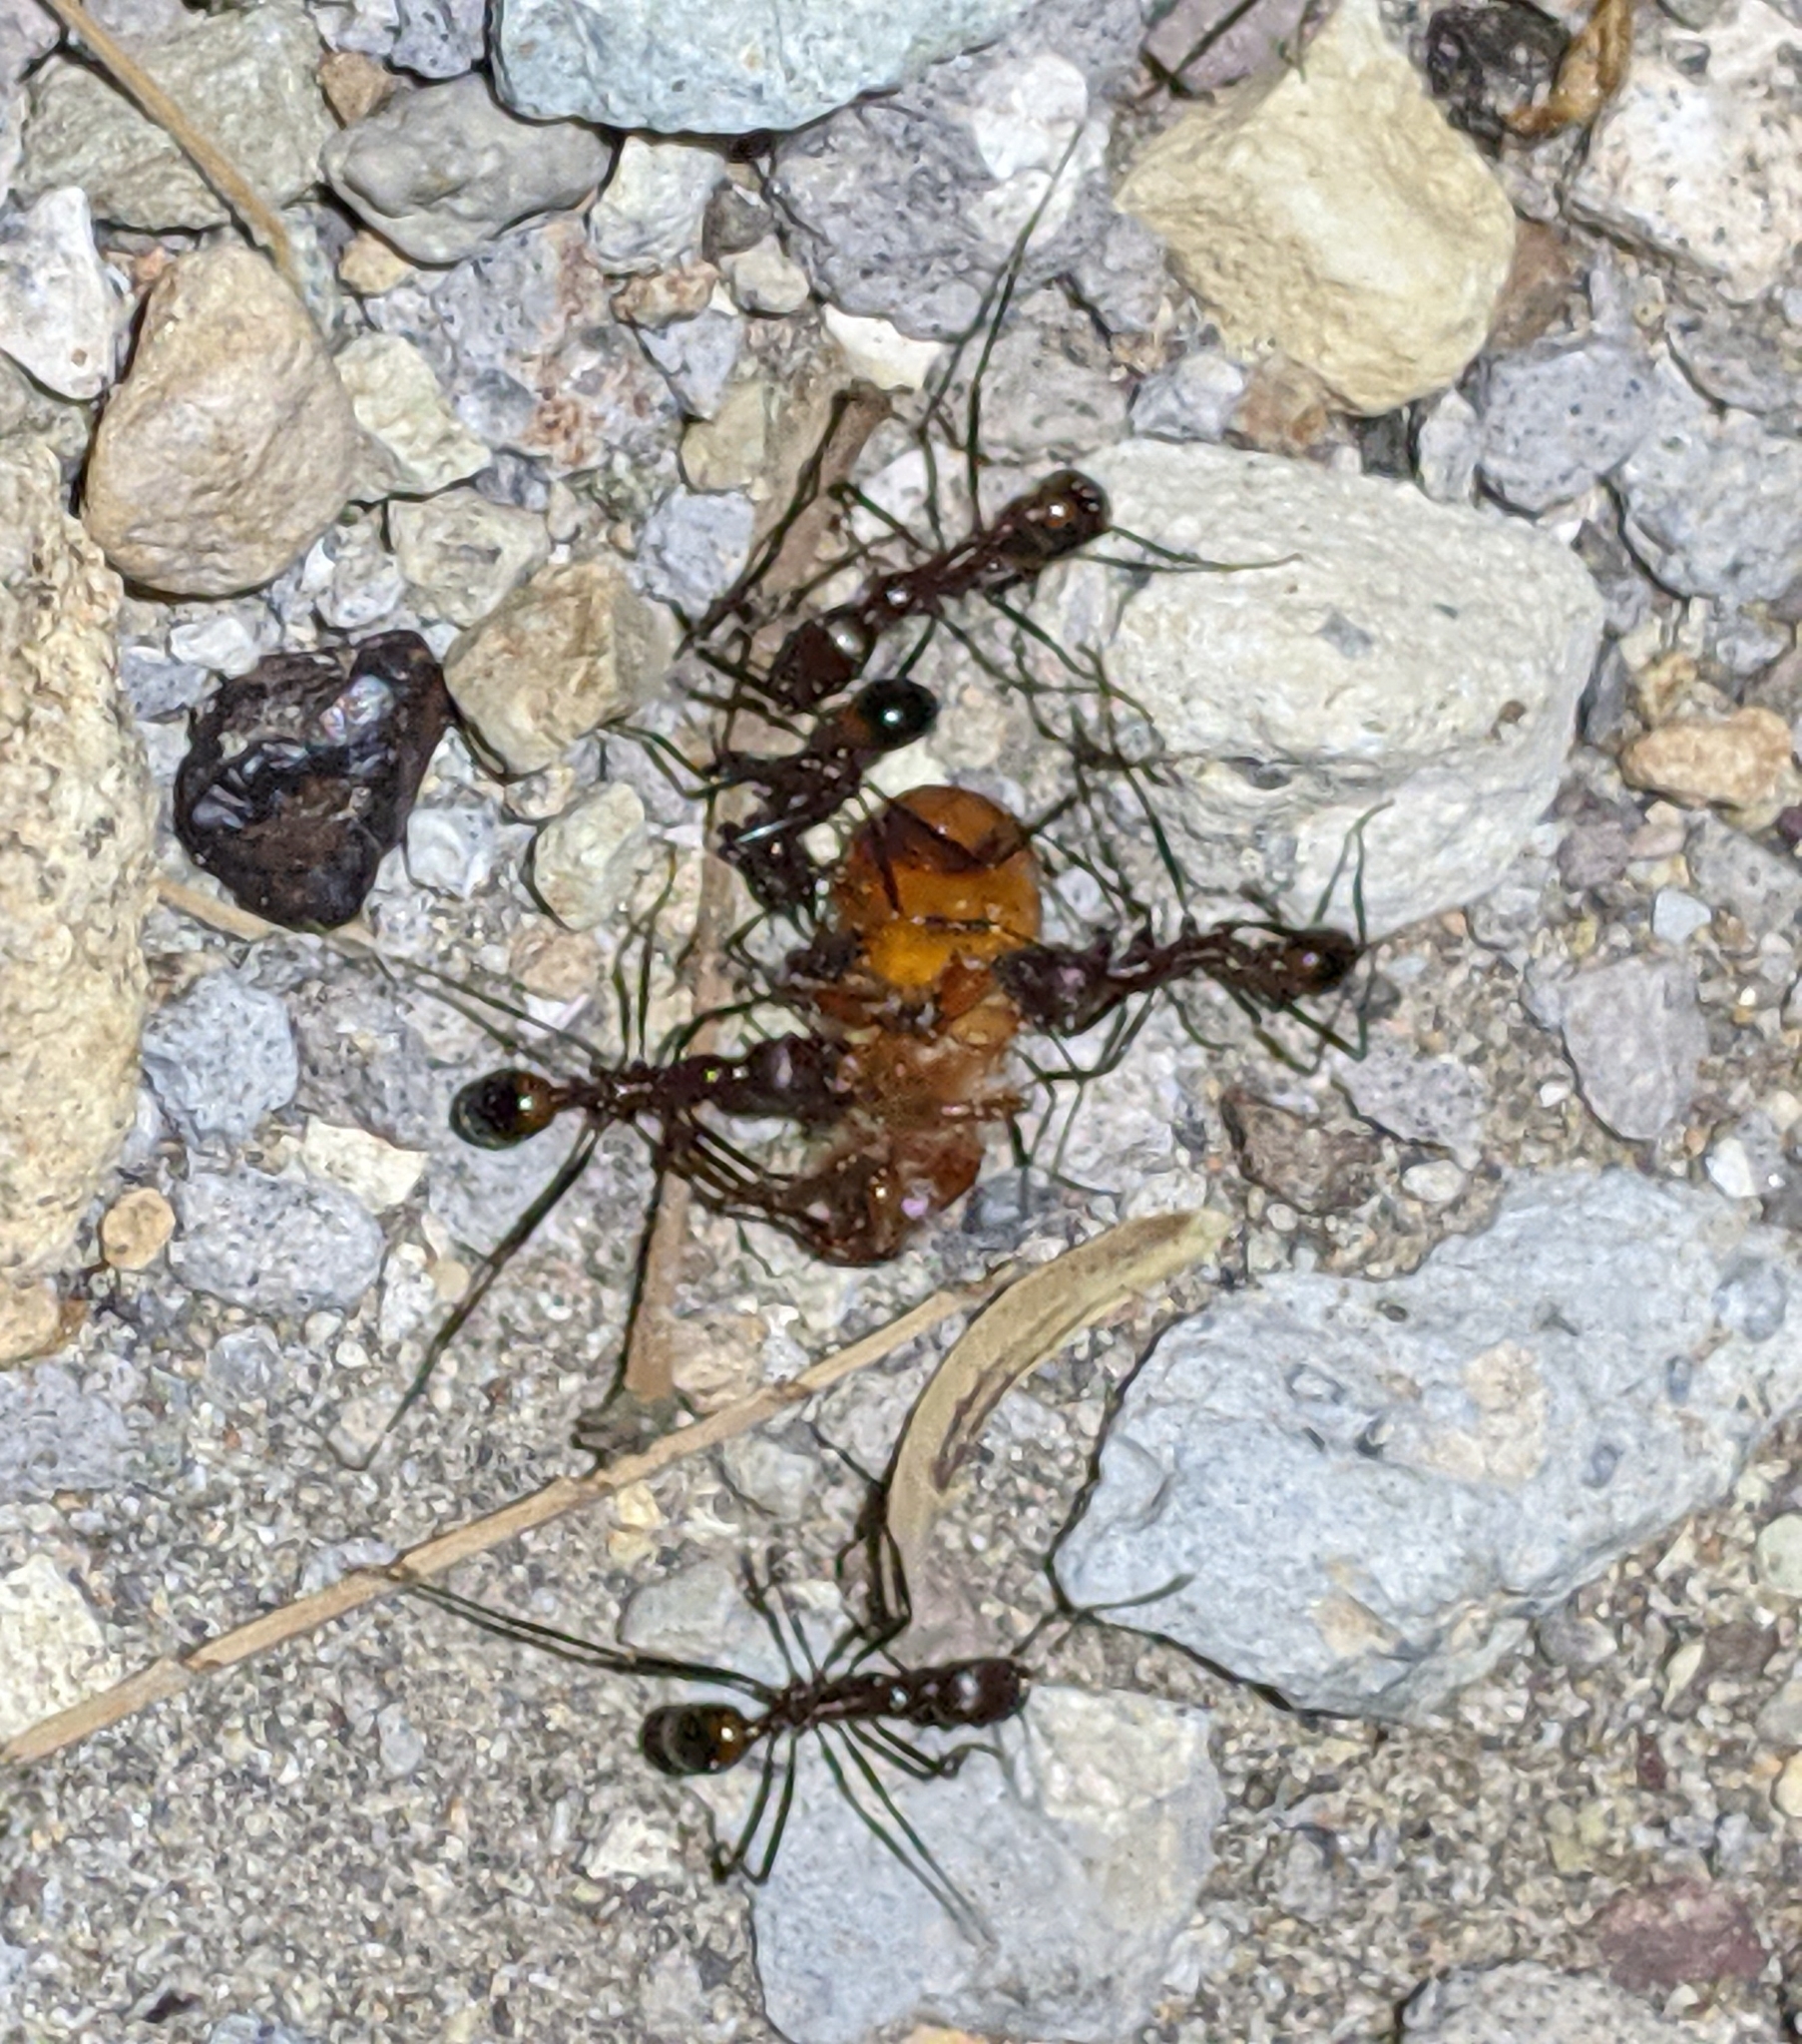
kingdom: Animalia
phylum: Arthropoda
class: Insecta
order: Hymenoptera
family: Formicidae
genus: Novomessor
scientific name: Novomessor cockerelli
